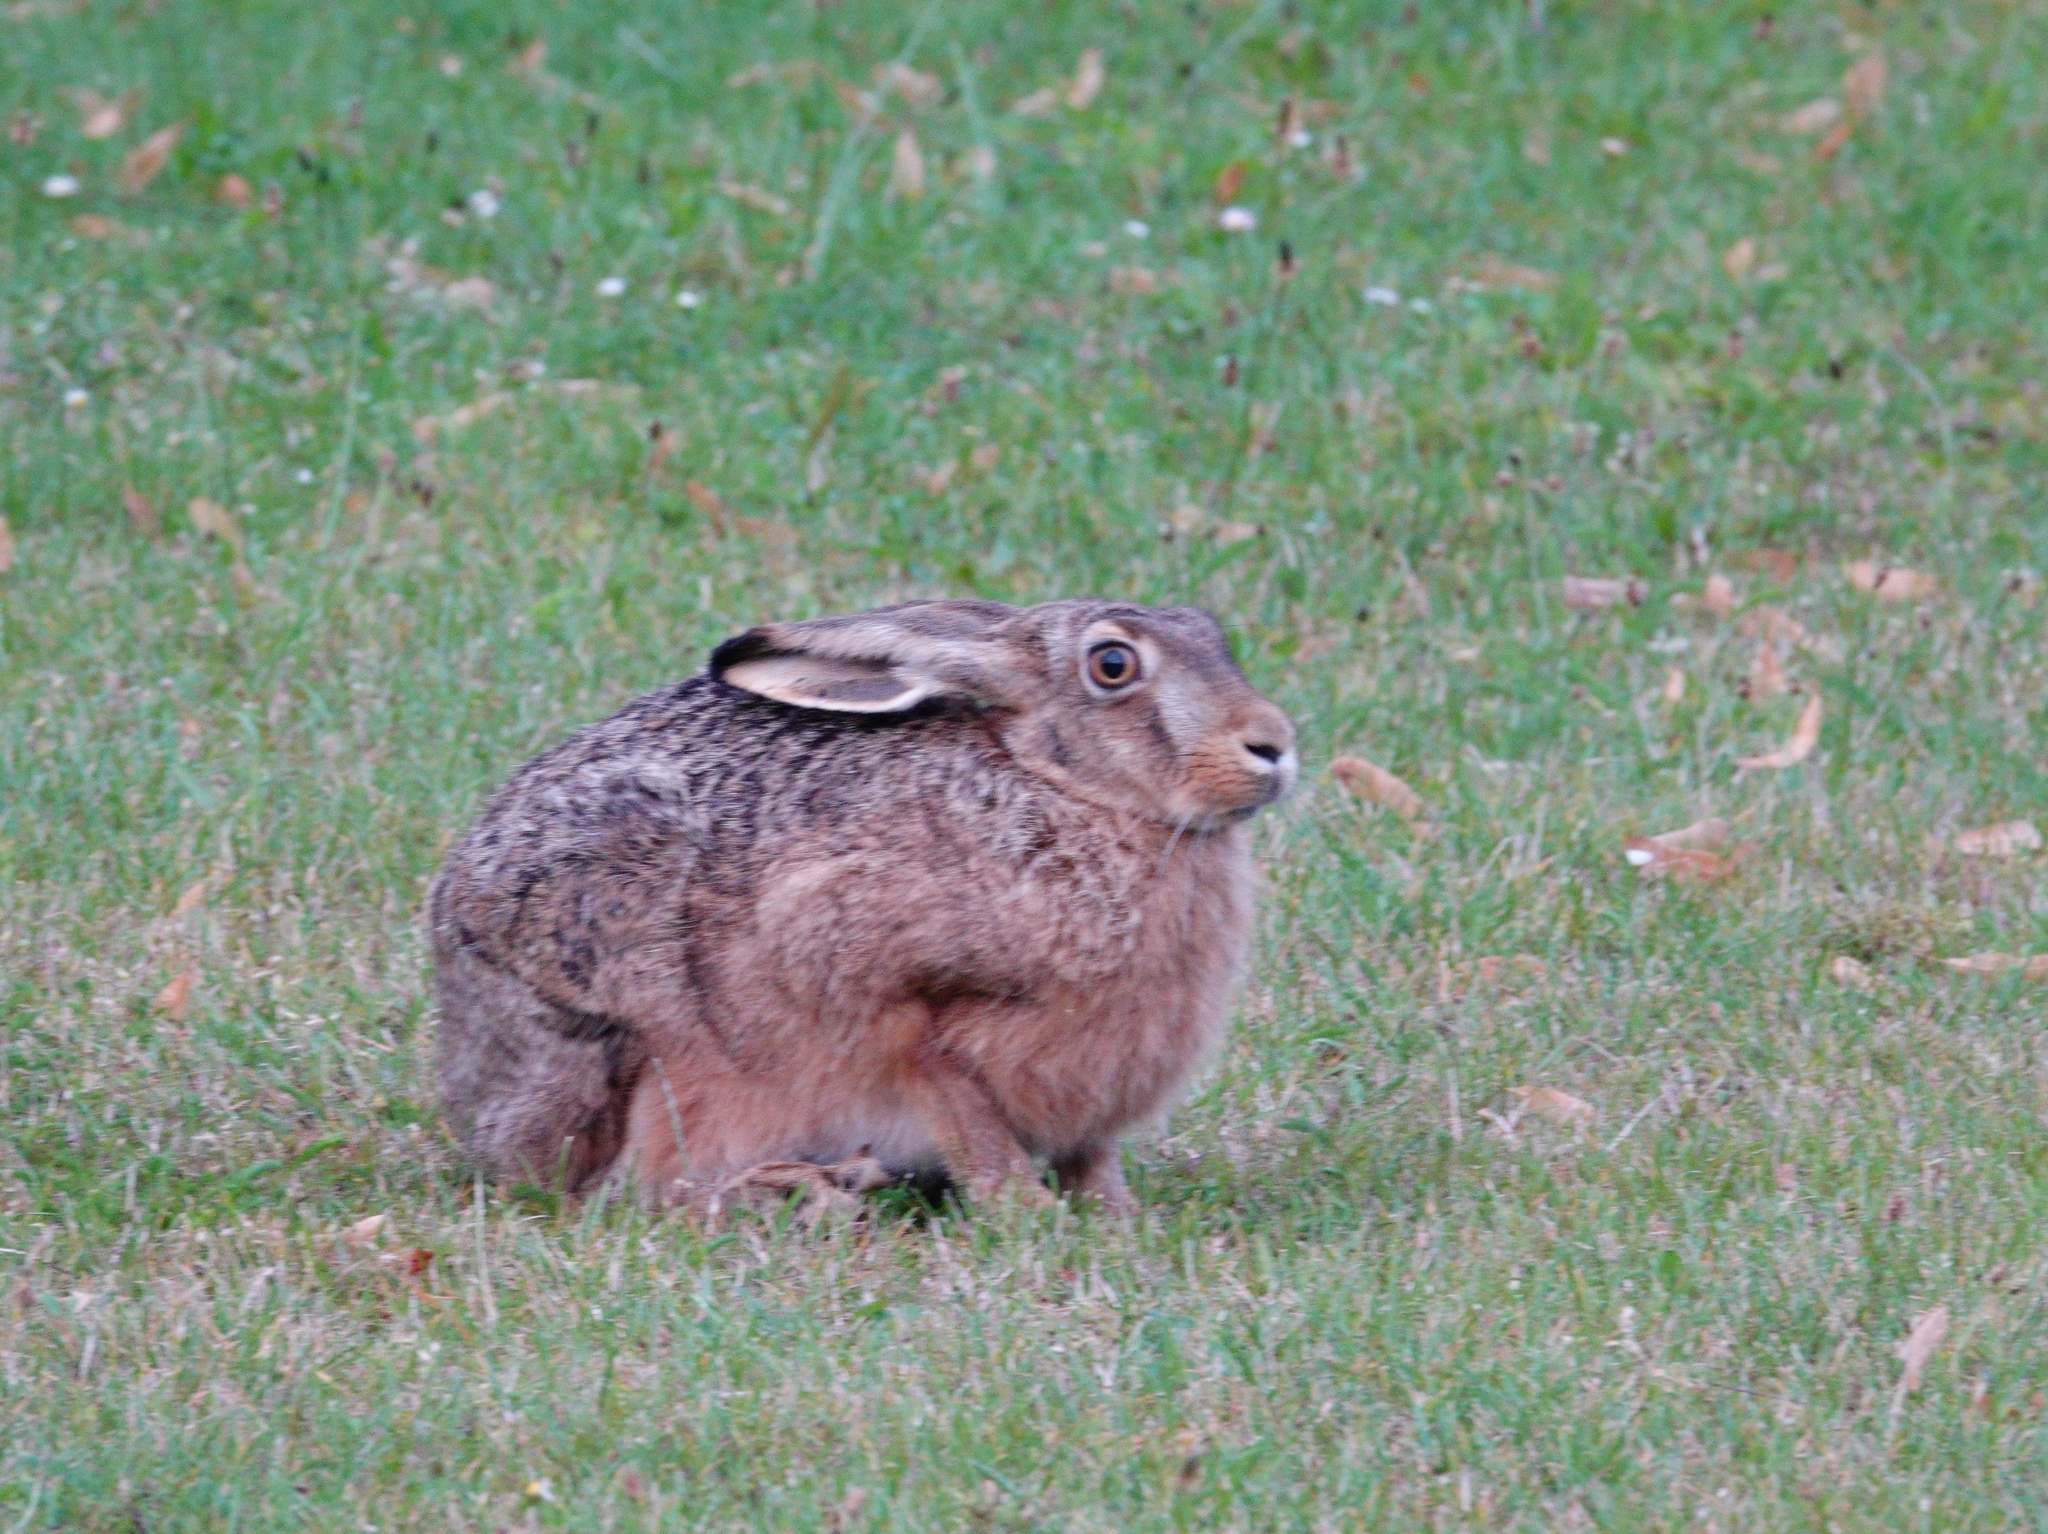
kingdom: Animalia
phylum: Chordata
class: Mammalia
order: Lagomorpha
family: Leporidae
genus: Lepus
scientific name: Lepus europaeus
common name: European hare
